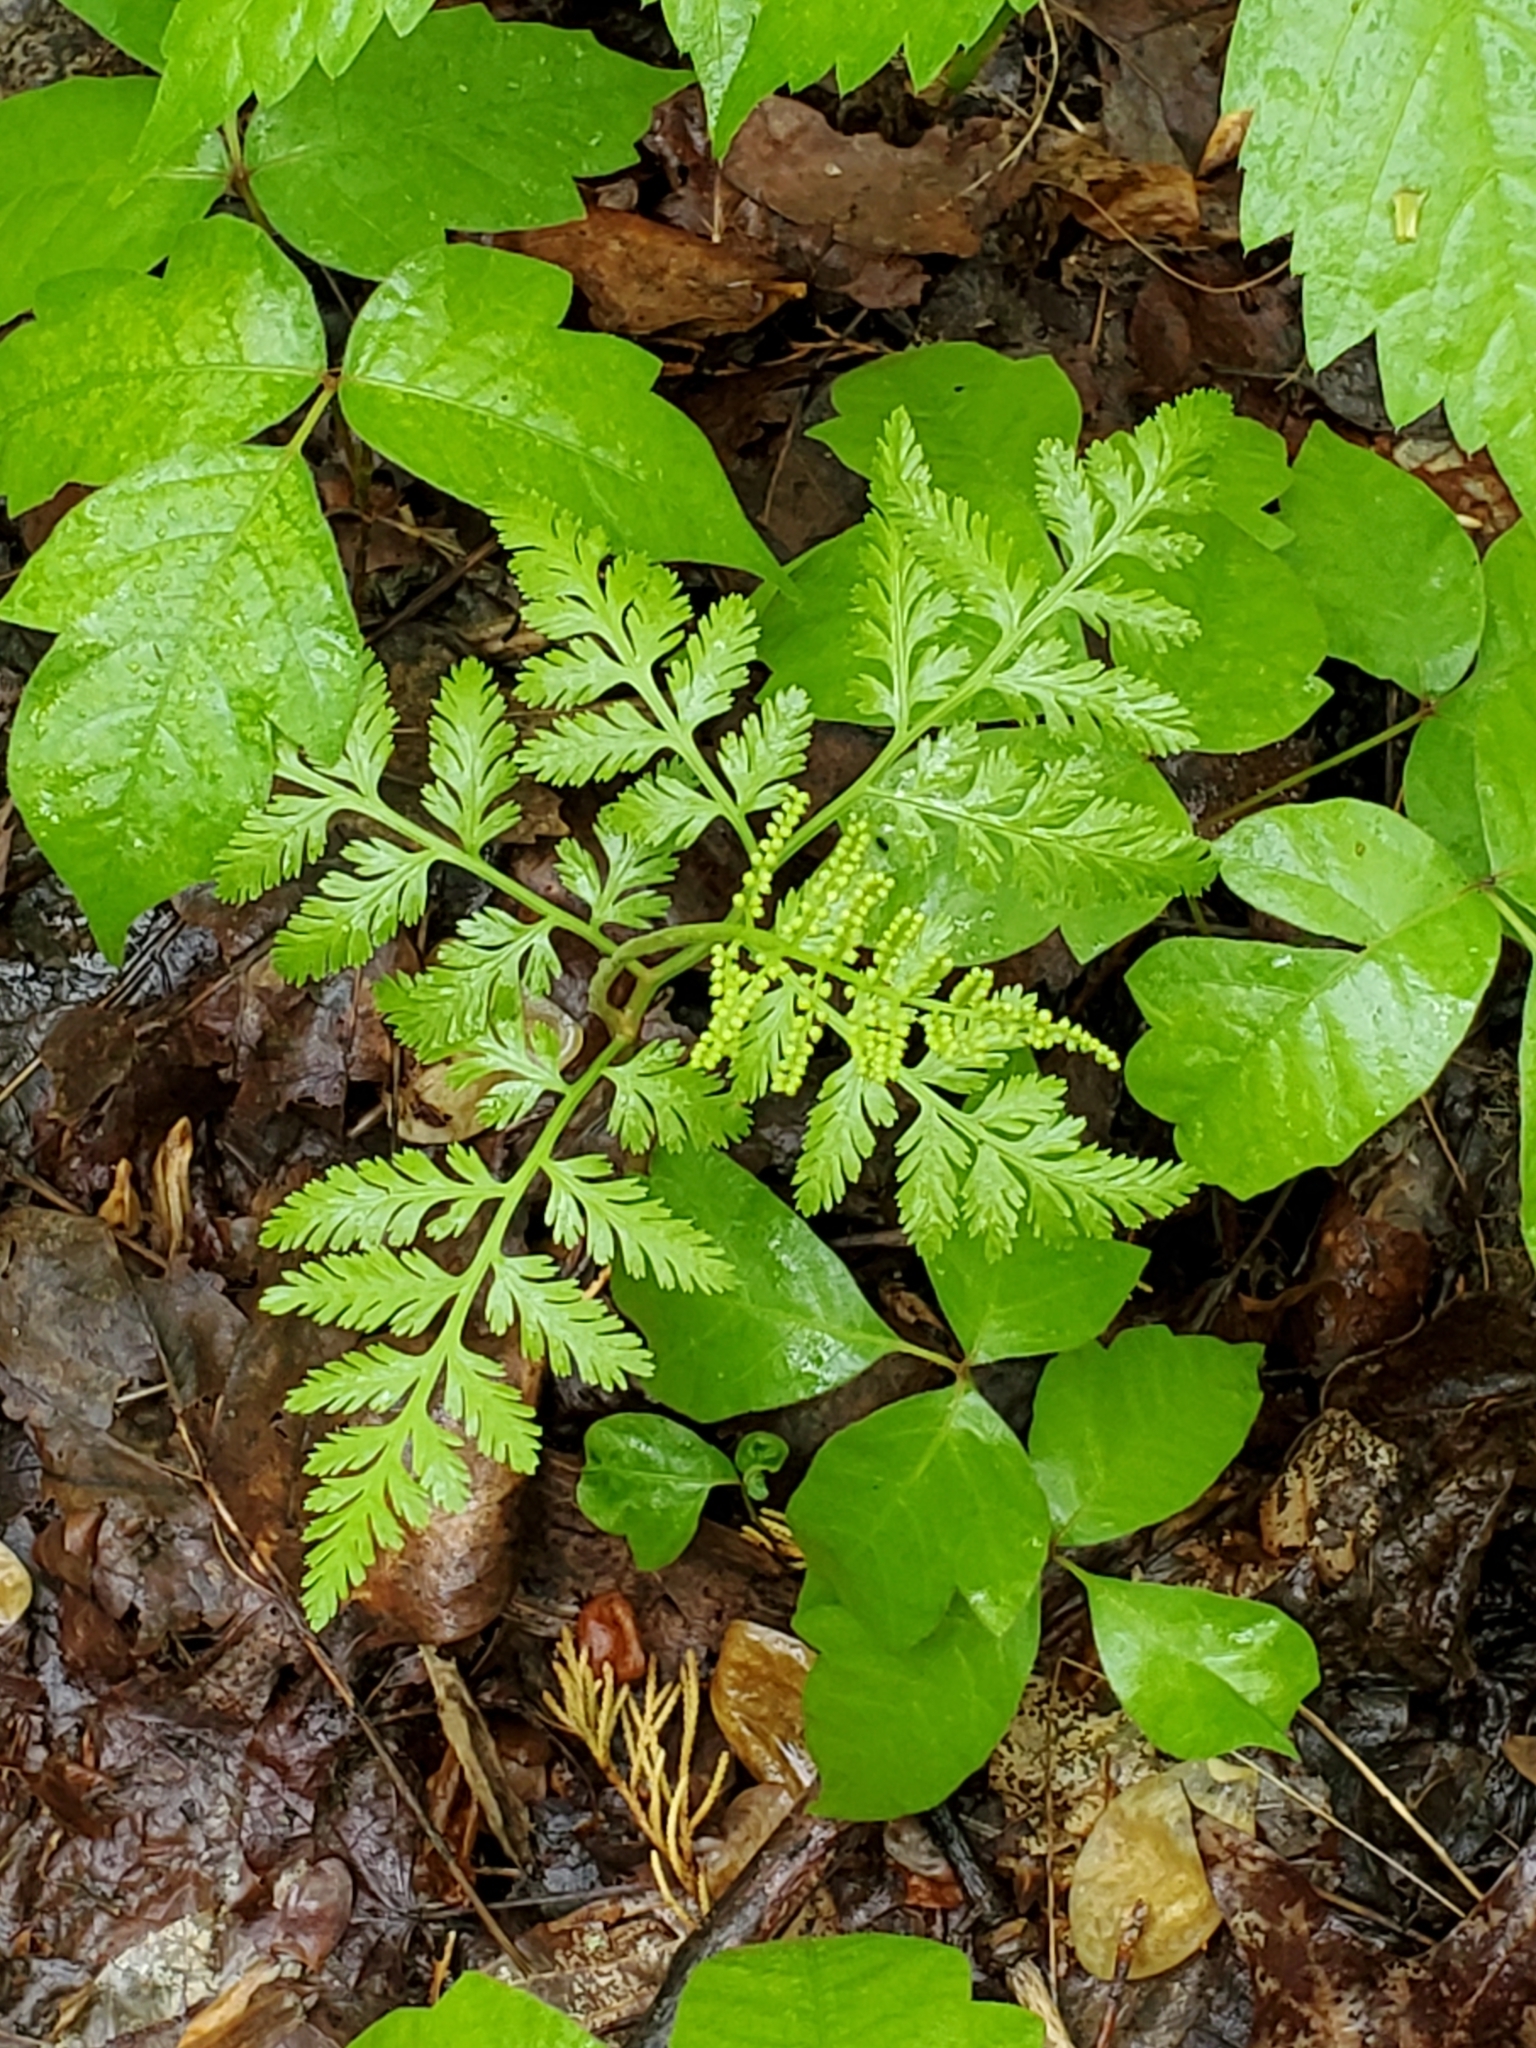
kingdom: Plantae
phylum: Tracheophyta
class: Polypodiopsida
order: Ophioglossales
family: Ophioglossaceae
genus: Botrypus
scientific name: Botrypus virginianus
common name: Common grapefern
